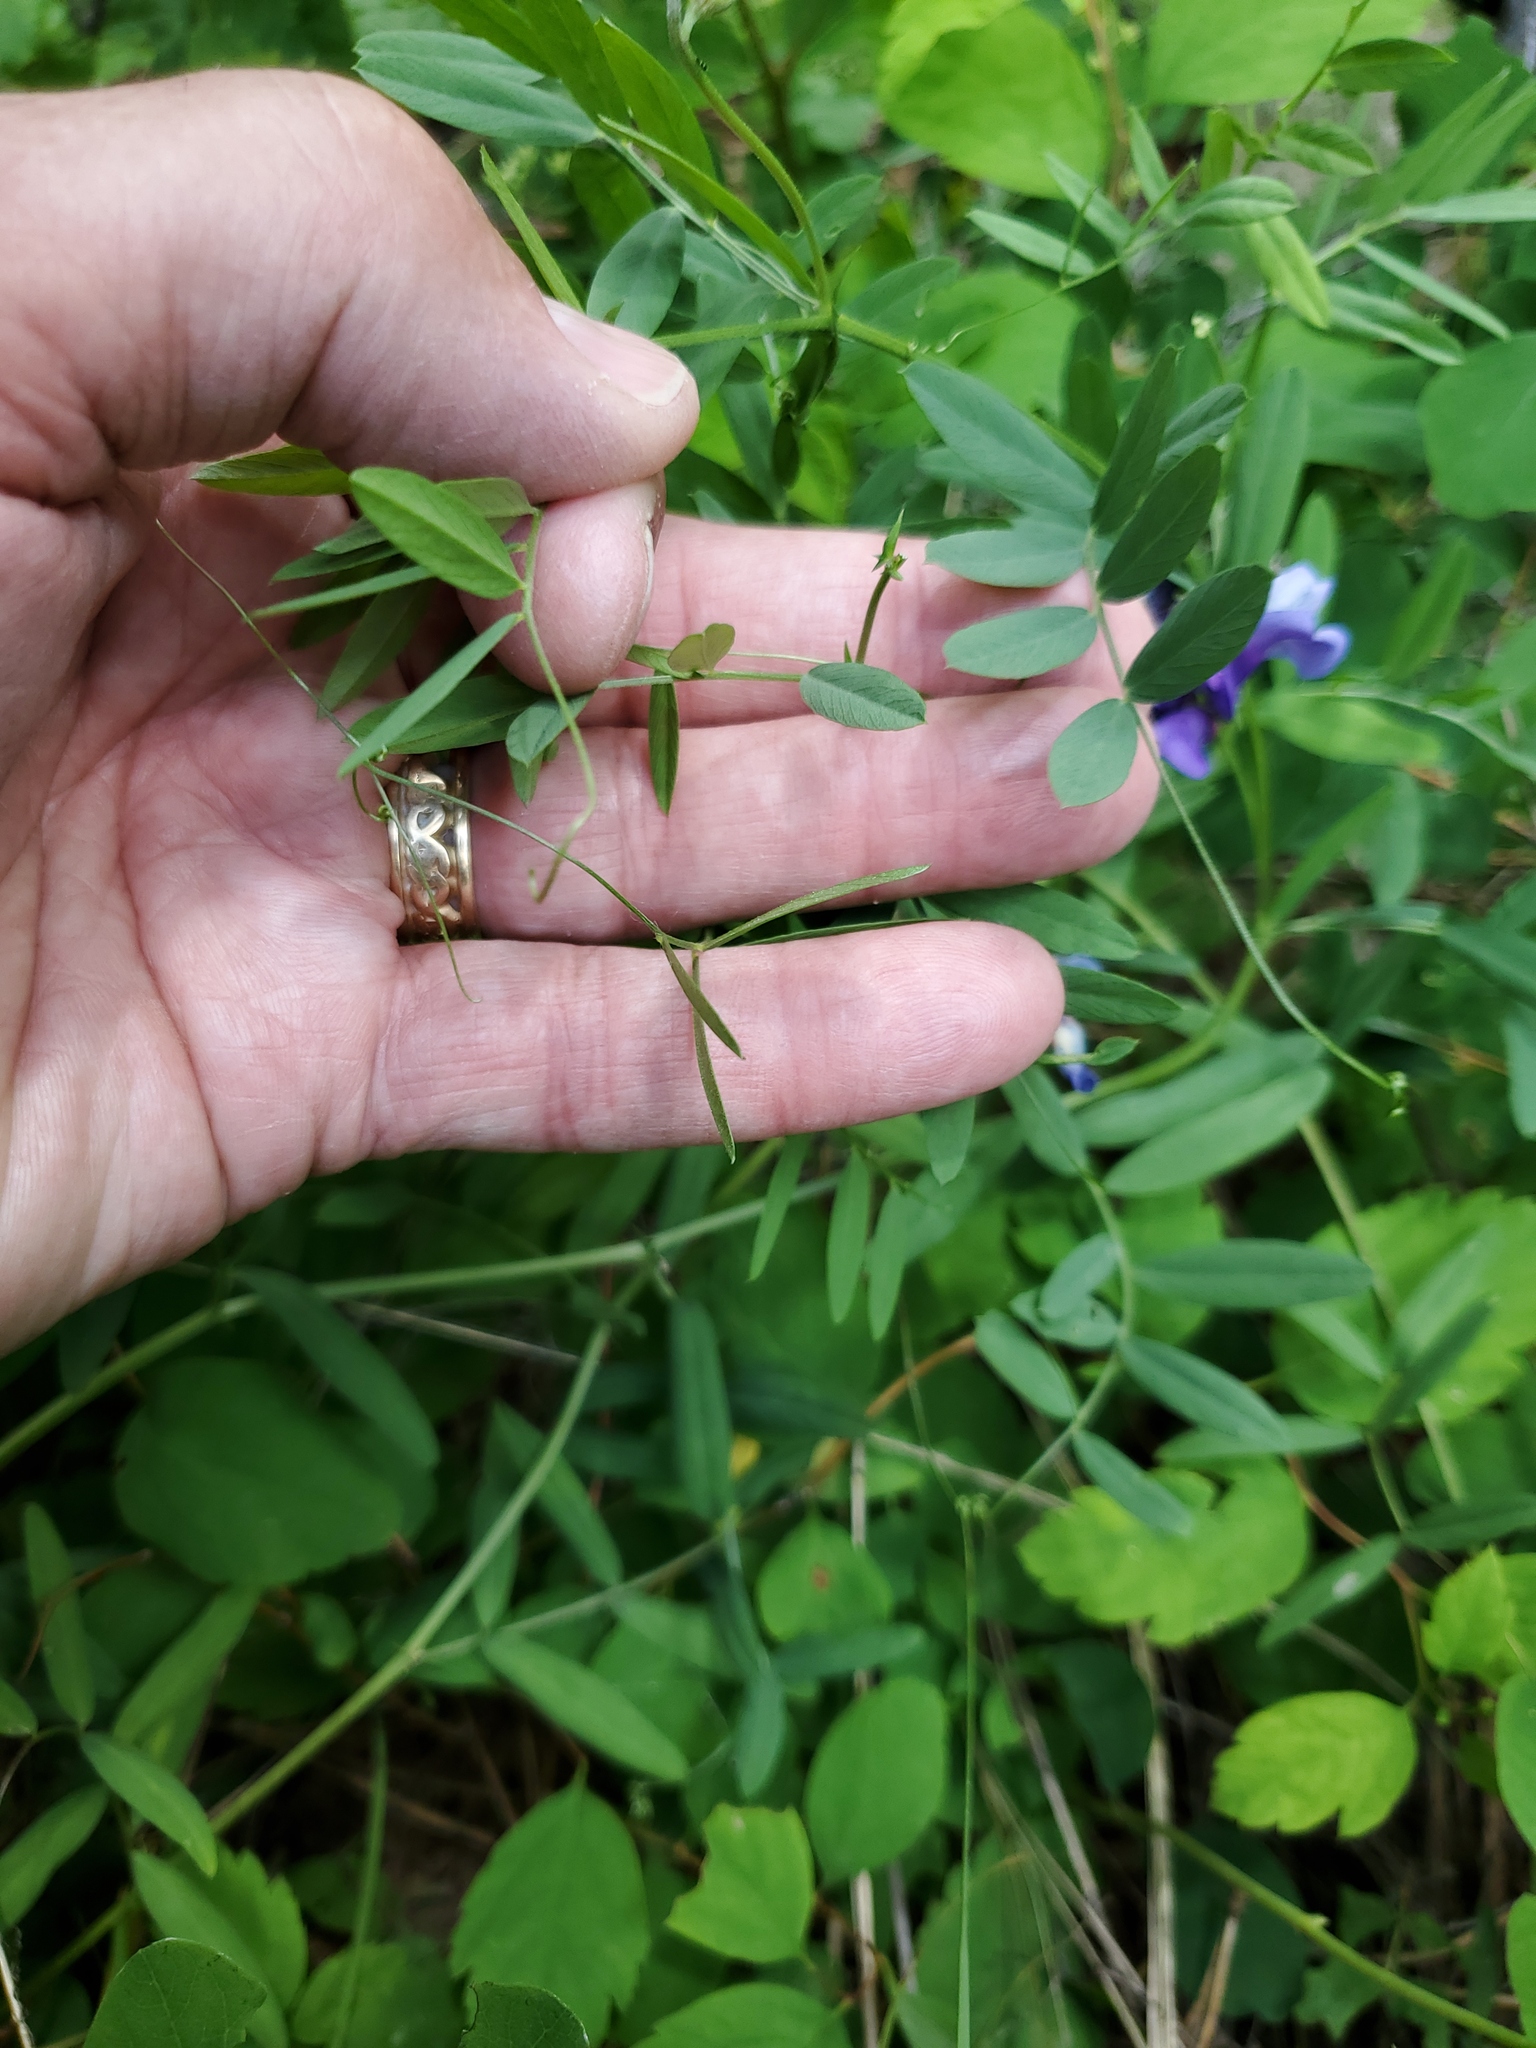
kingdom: Plantae
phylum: Tracheophyta
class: Magnoliopsida
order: Fabales
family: Fabaceae
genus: Vicia
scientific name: Vicia americana
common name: American vetch
